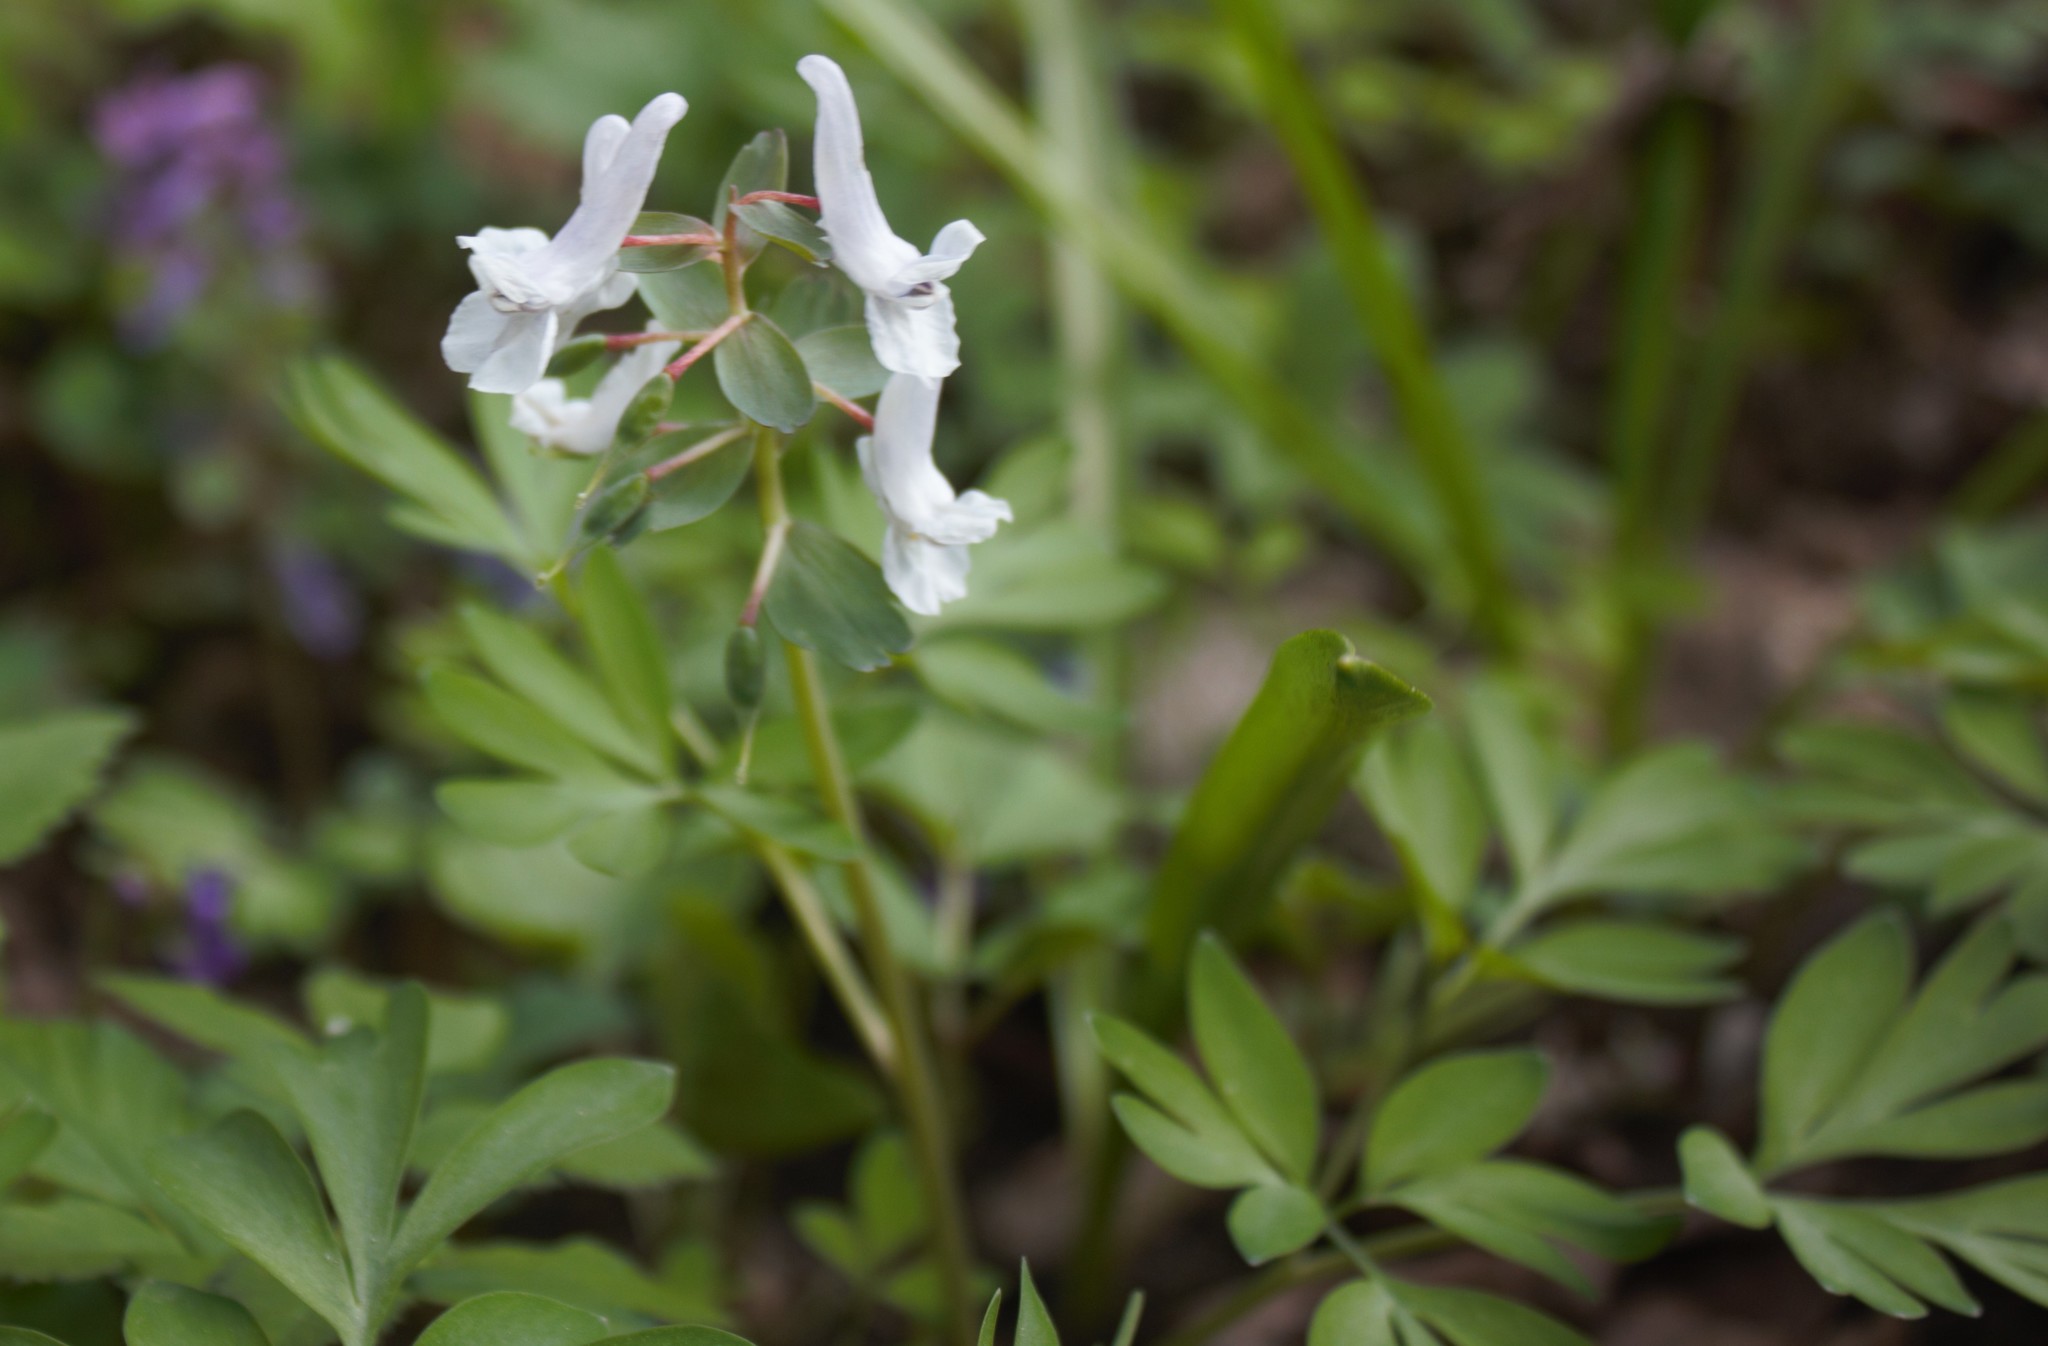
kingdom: Plantae
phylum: Tracheophyta
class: Magnoliopsida
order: Ranunculales
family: Papaveraceae
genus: Corydalis
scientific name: Corydalis solida
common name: Bird-in-a-bush
